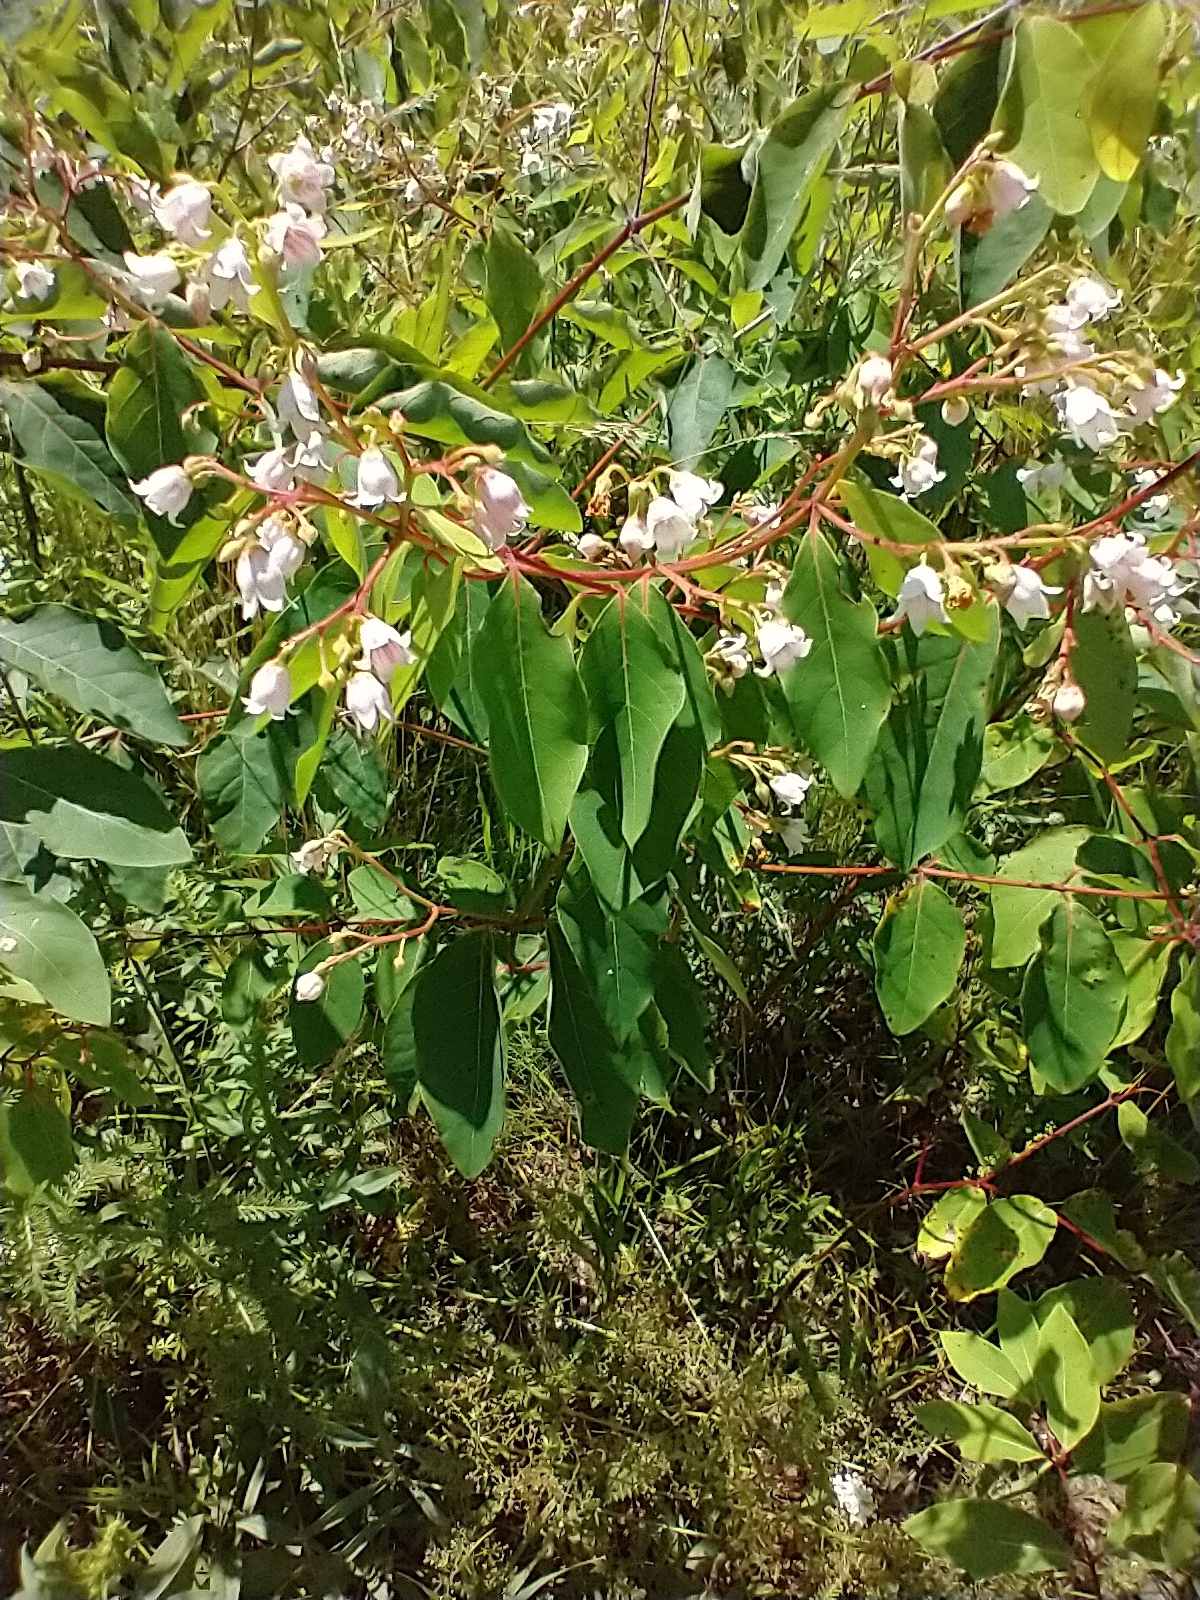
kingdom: Plantae
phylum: Tracheophyta
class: Magnoliopsida
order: Gentianales
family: Apocynaceae
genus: Apocynum
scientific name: Apocynum androsaemifolium
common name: Spreading dogbane
